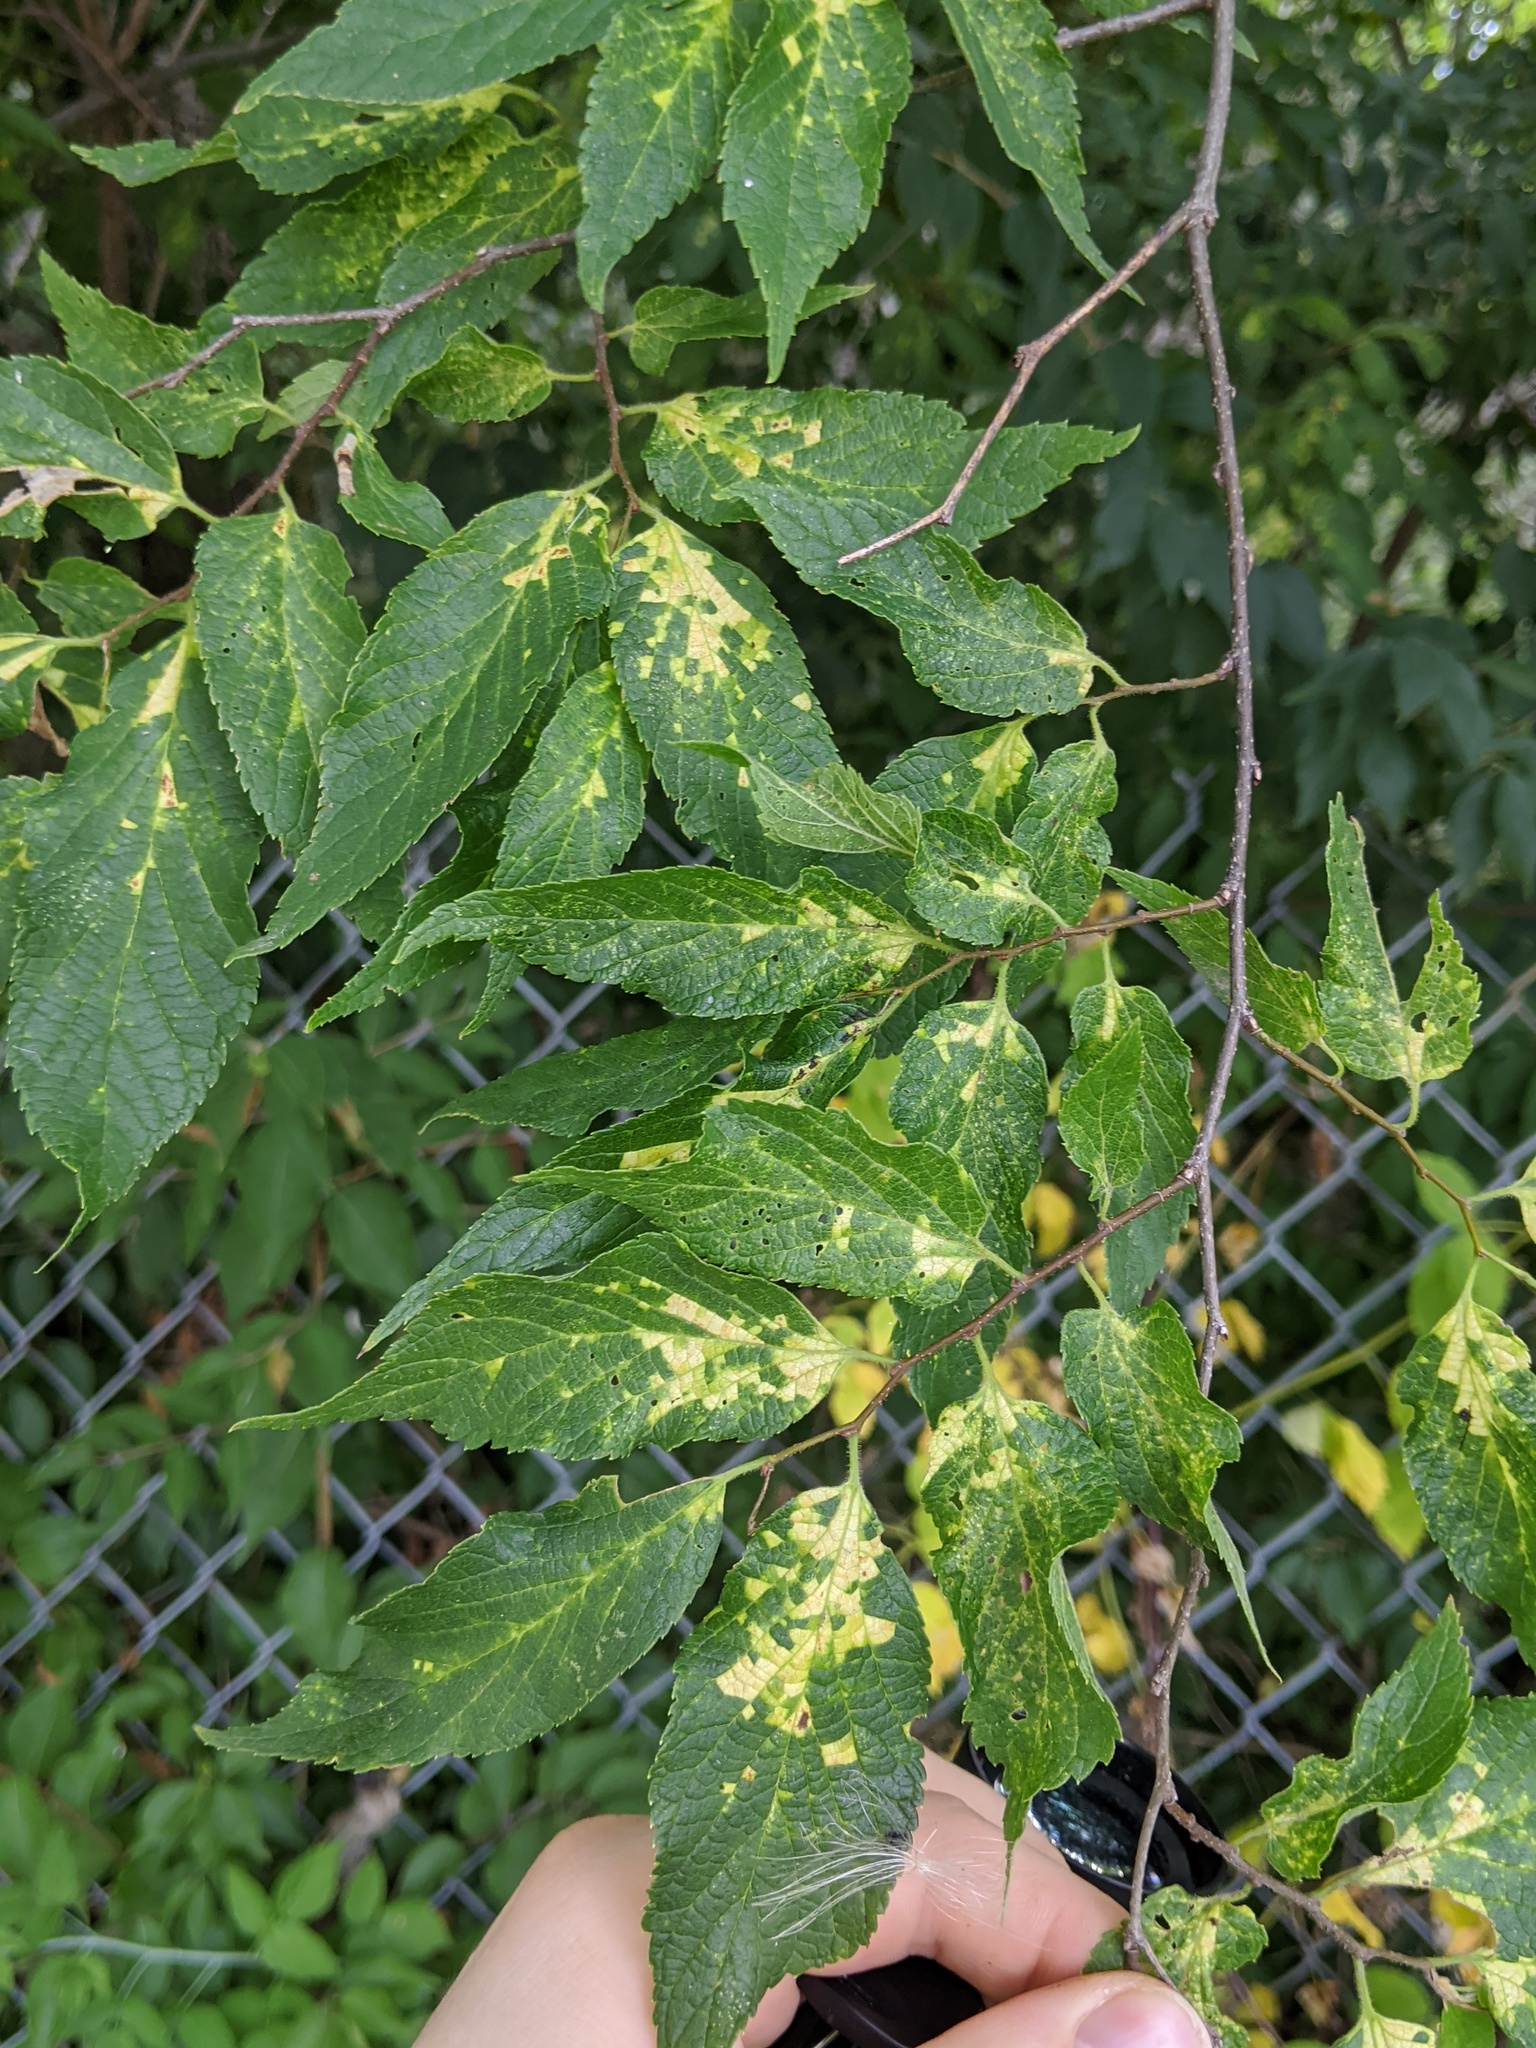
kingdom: Viruses
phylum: Kitrinoviricota
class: Alsuviricetes
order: Martellivirales
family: Closteroviridae
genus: Ampelovirus
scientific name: Ampelovirus
